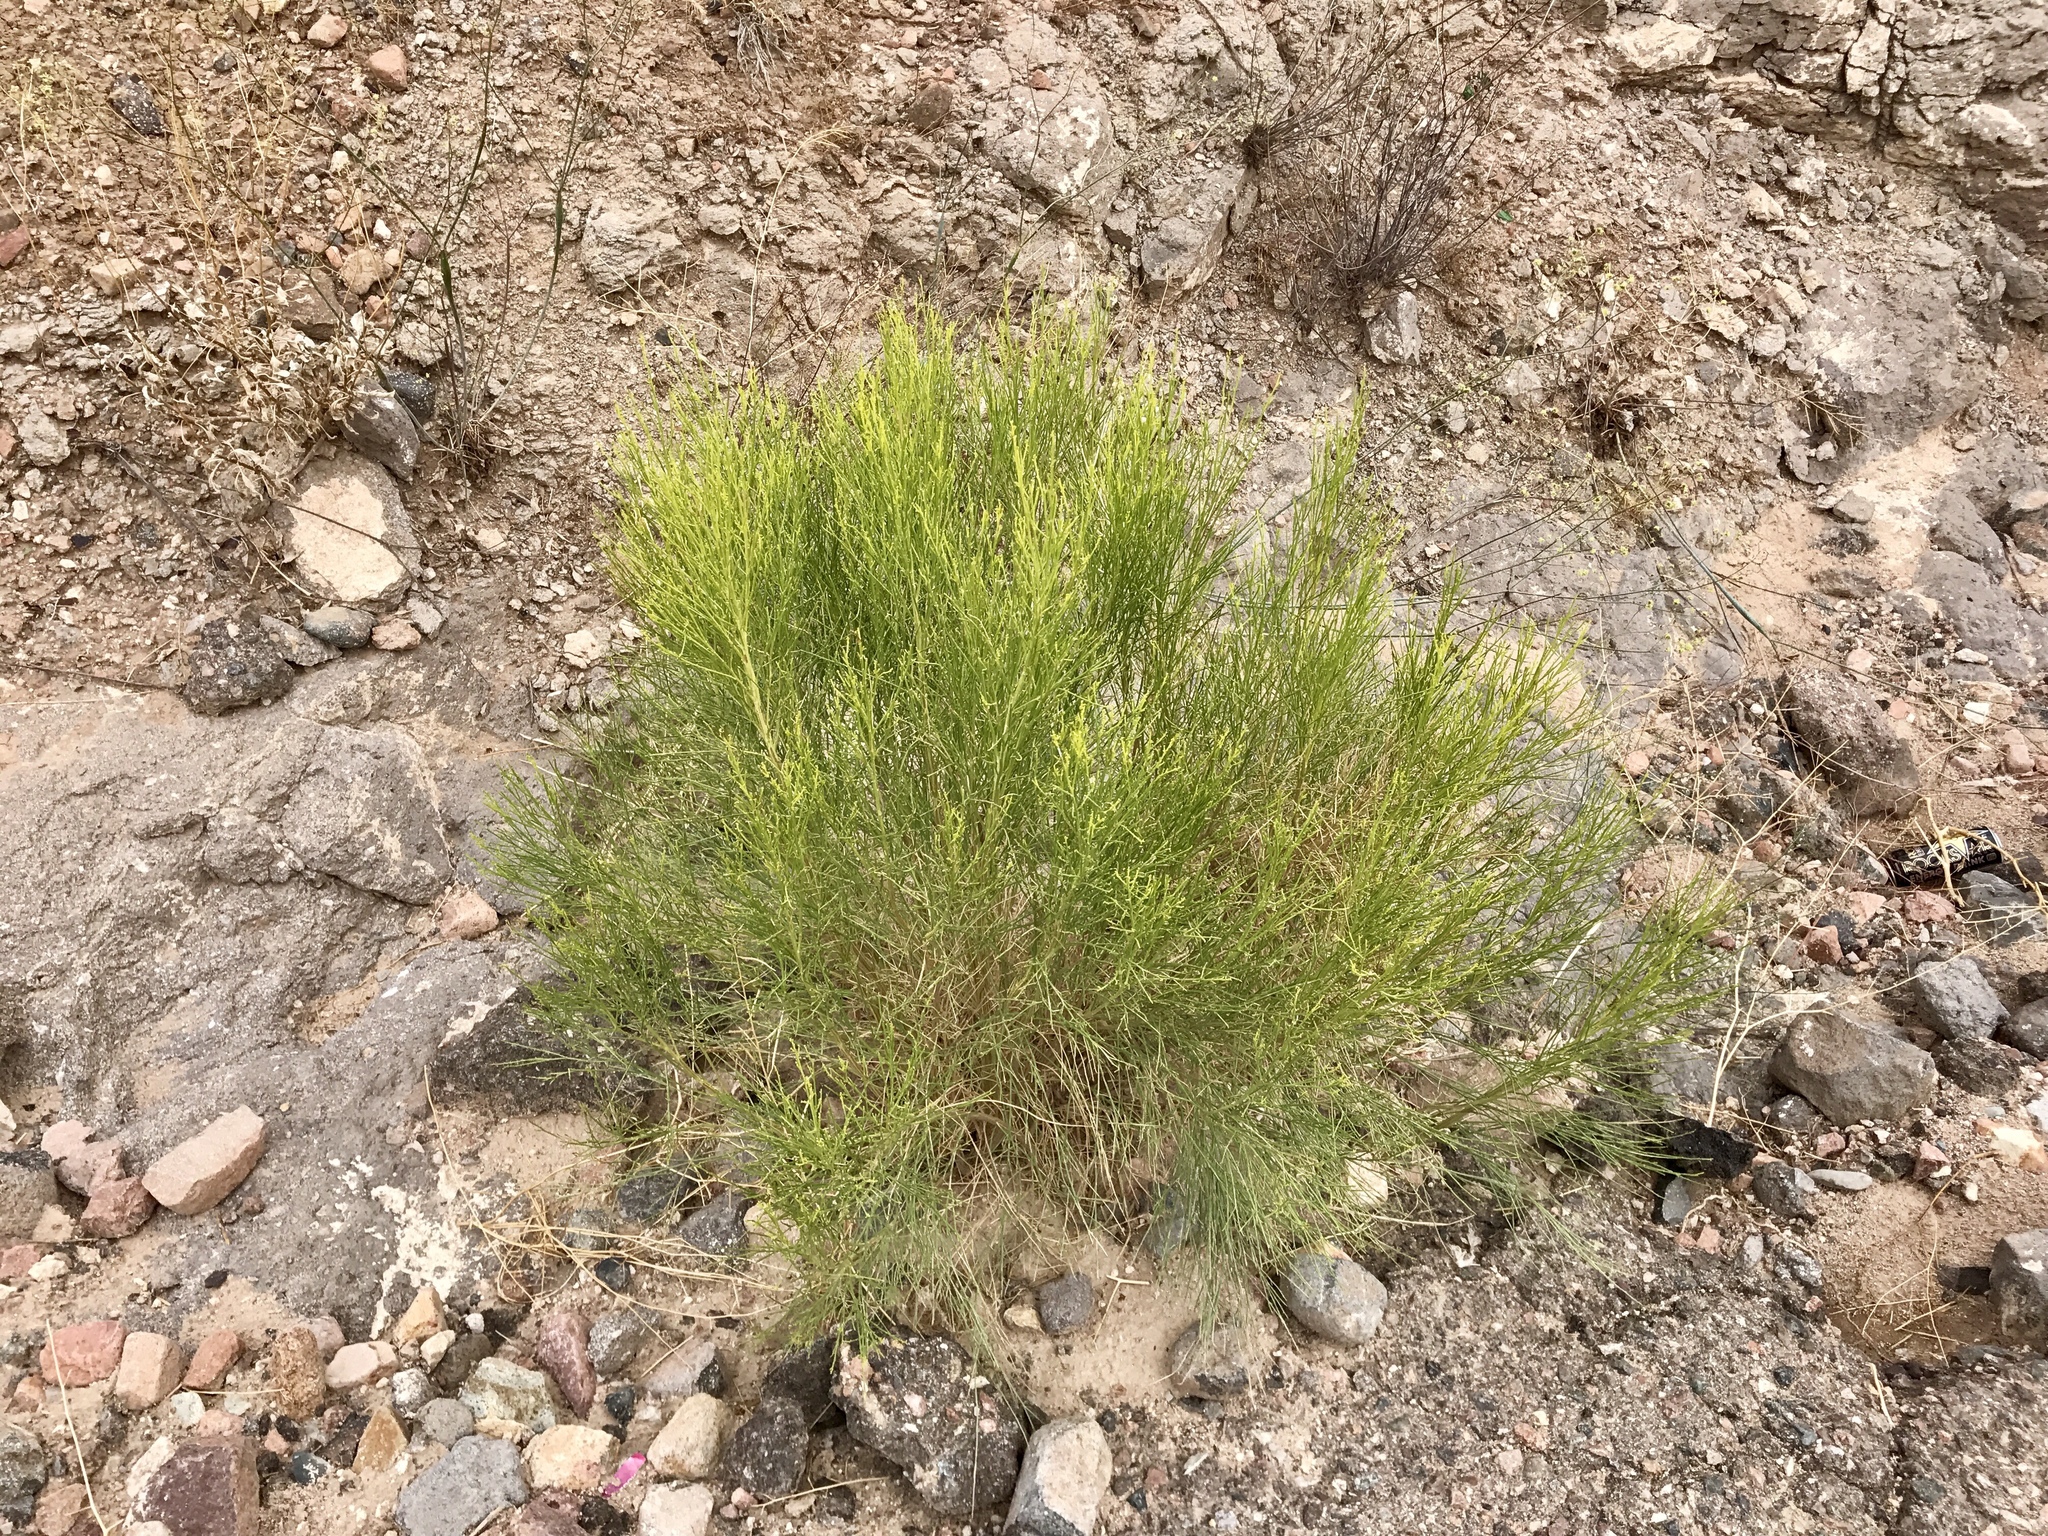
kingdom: Plantae
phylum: Tracheophyta
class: Magnoliopsida
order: Asterales
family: Asteraceae
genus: Baccharis
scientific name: Baccharis sarothroides
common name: Desert-broom
